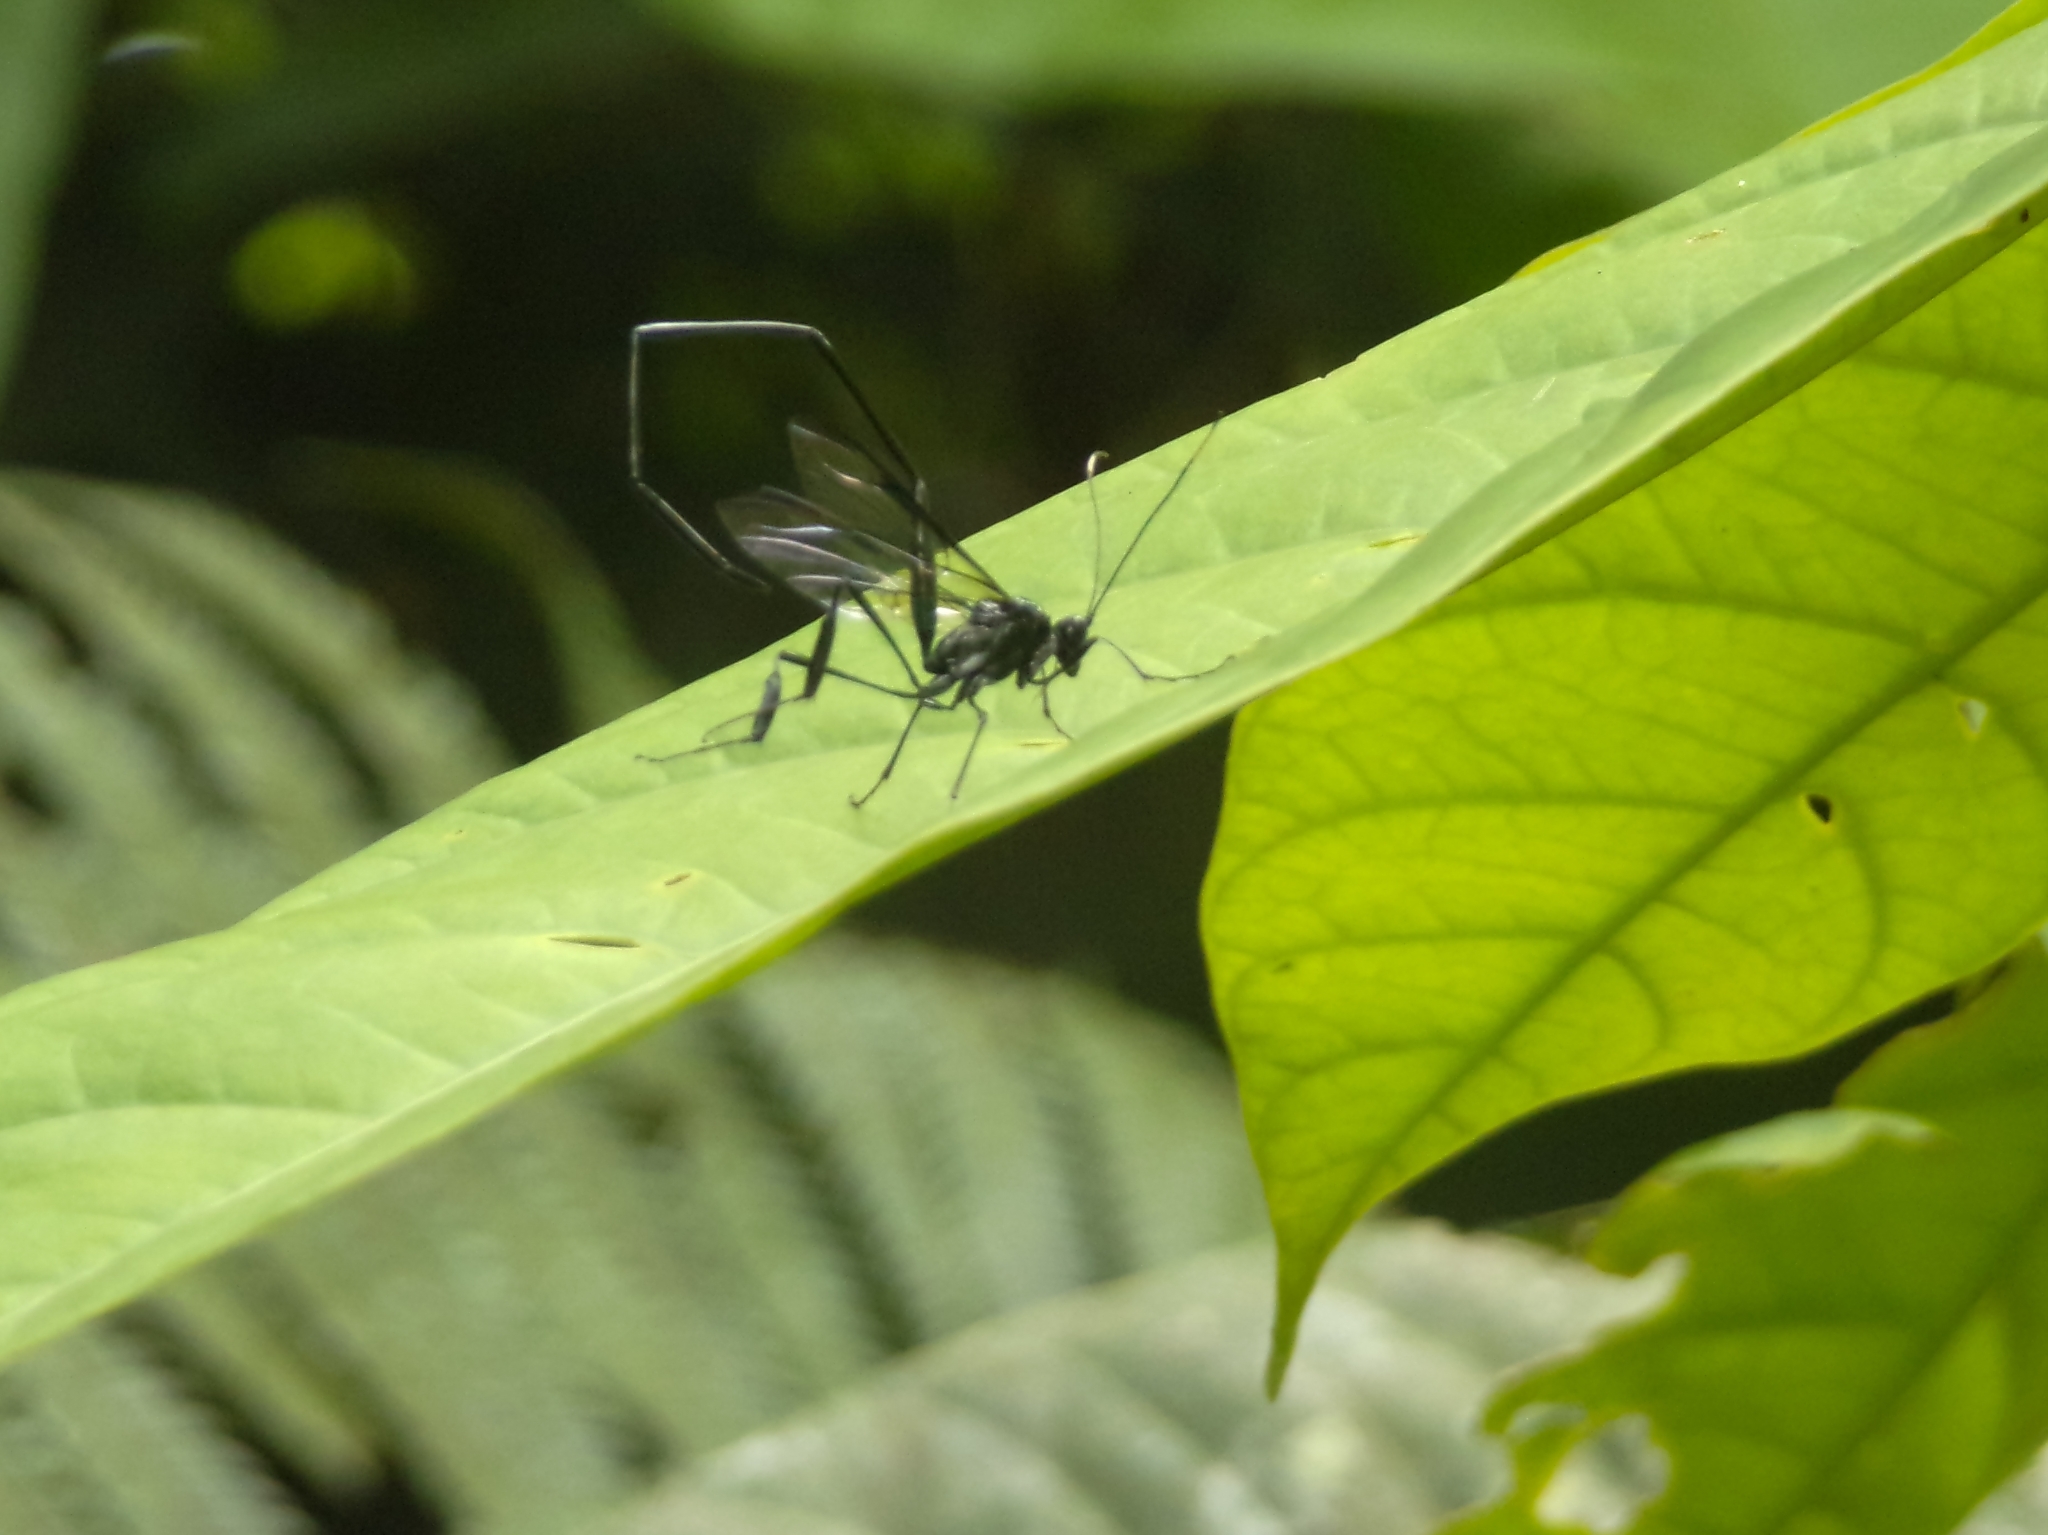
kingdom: Animalia
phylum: Arthropoda
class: Insecta
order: Hymenoptera
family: Pelecinidae
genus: Pelecinus
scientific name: Pelecinus polyturator
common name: American pelecinid wasp
